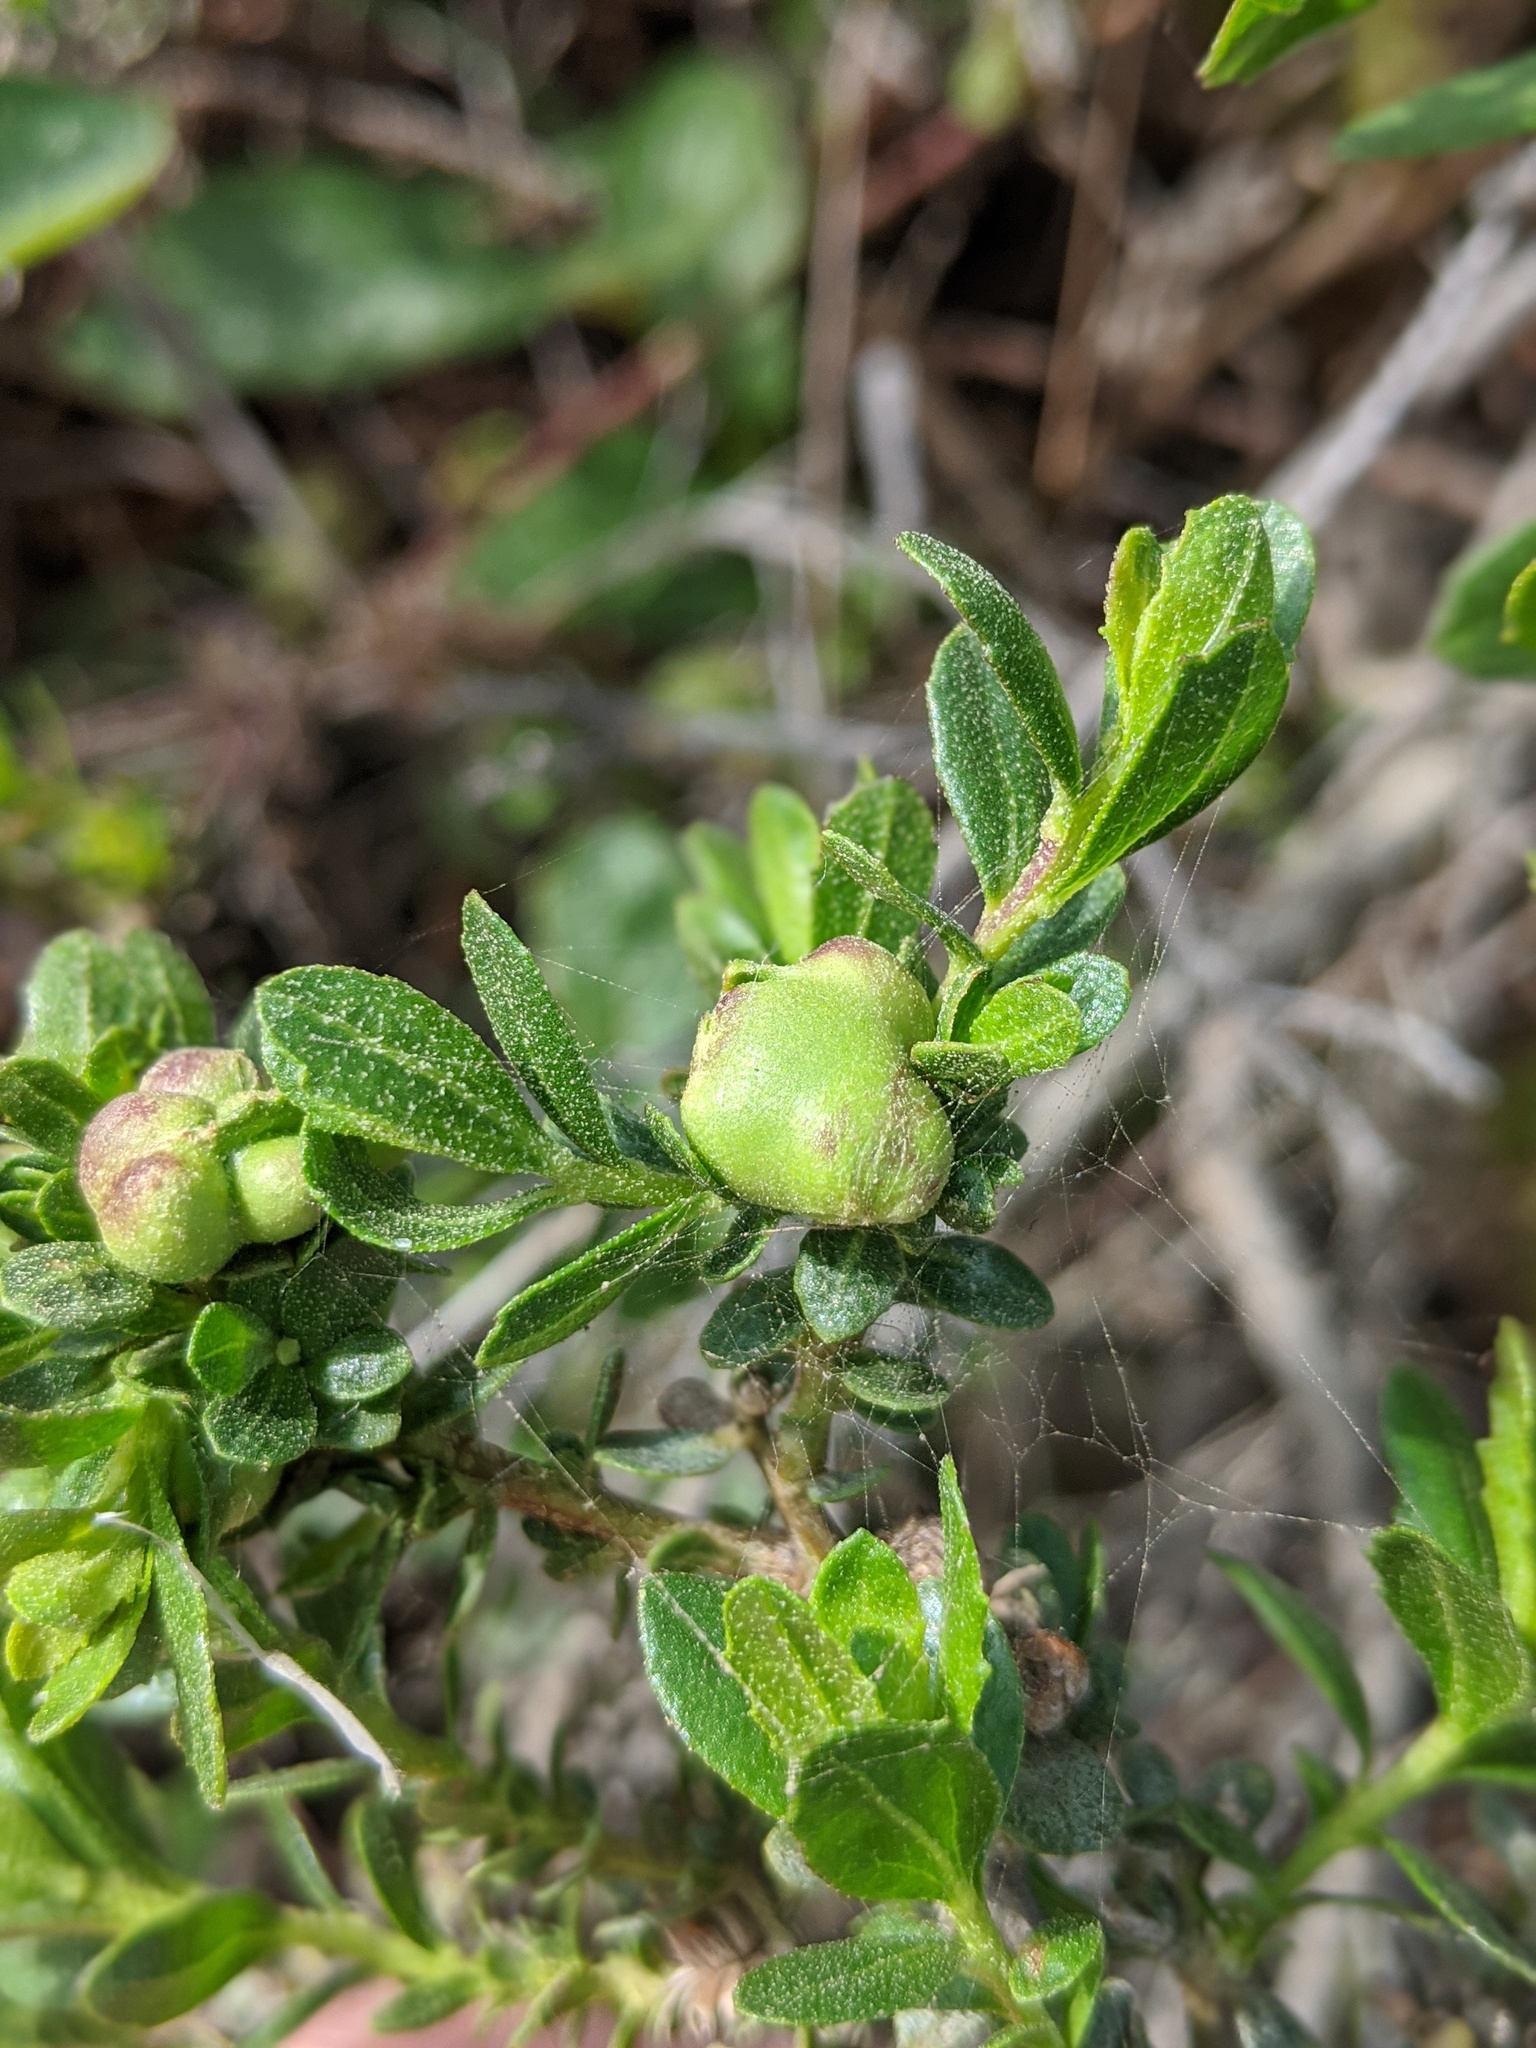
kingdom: Animalia
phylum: Arthropoda
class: Insecta
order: Diptera
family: Cecidomyiidae
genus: Rhopalomyia
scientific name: Rhopalomyia californica
